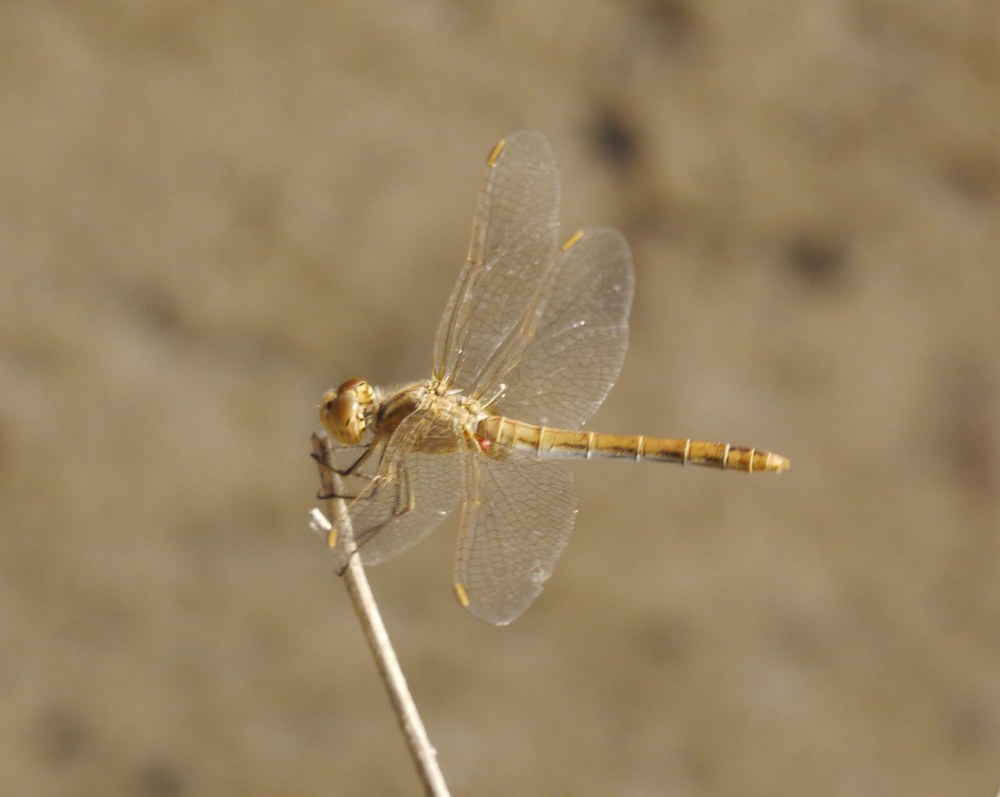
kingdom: Animalia
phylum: Arthropoda
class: Insecta
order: Odonata
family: Libellulidae
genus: Sympetrum
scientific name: Sympetrum meridionale
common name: Southern darter
